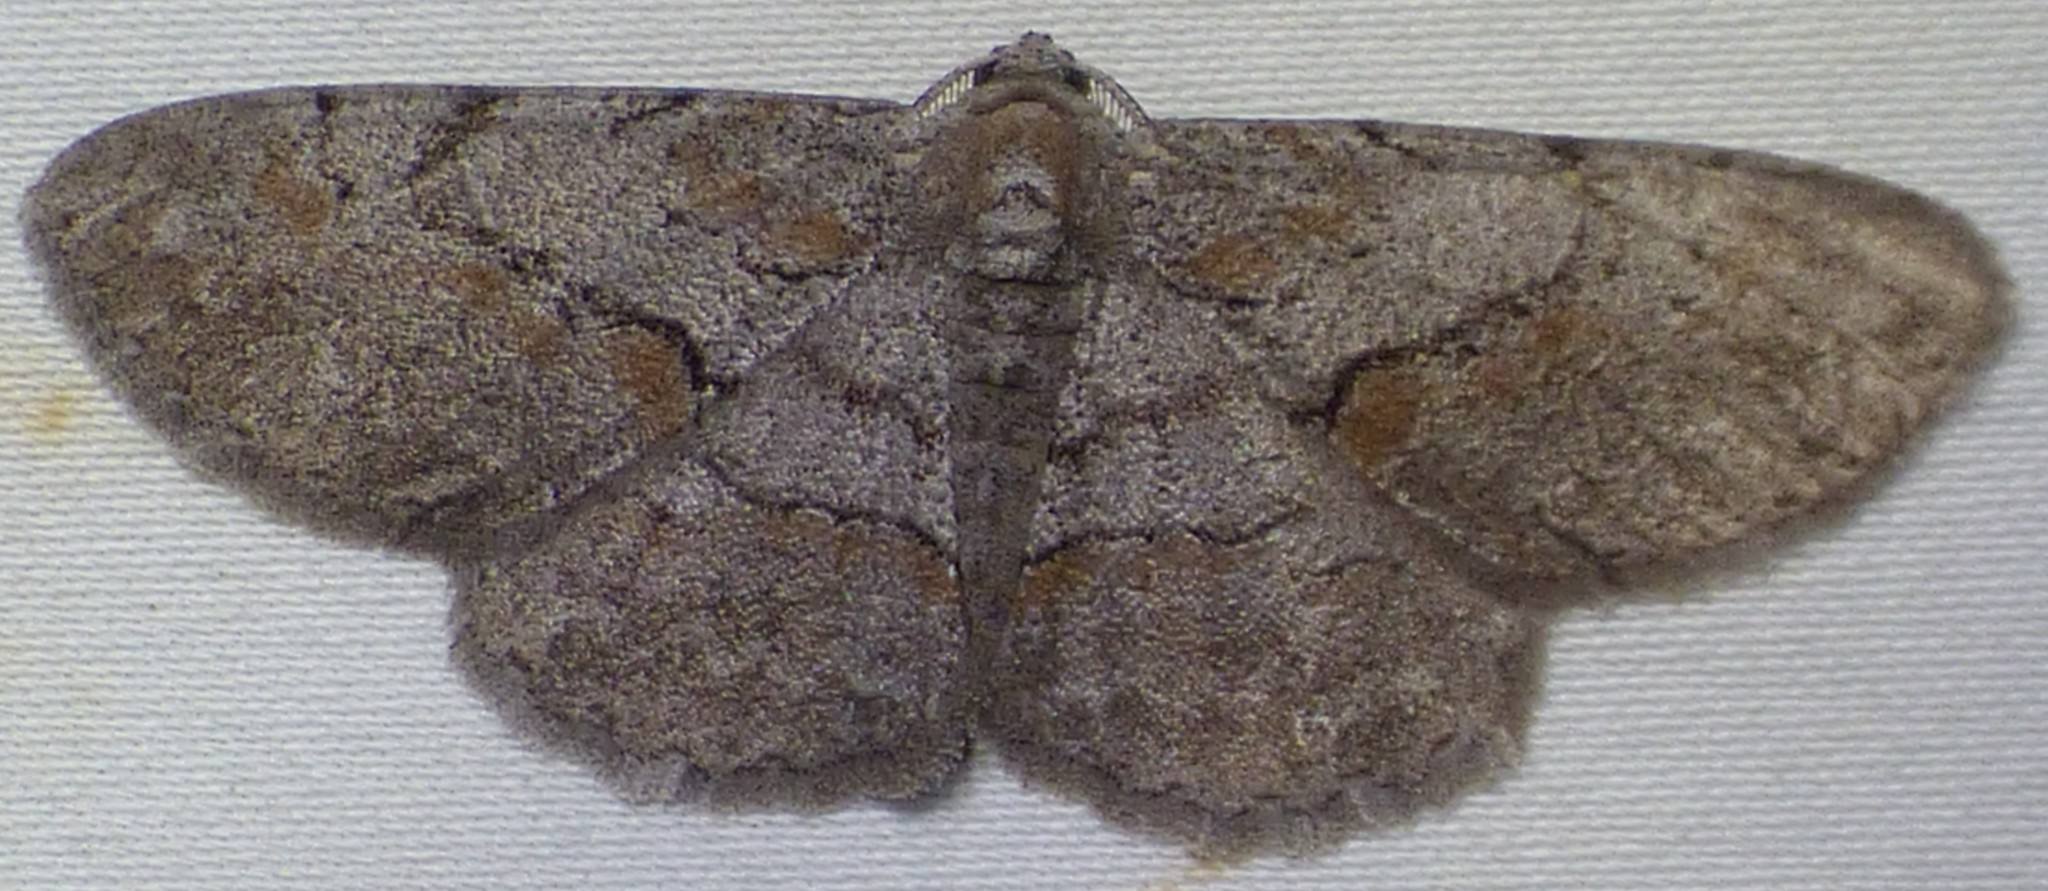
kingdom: Animalia
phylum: Arthropoda
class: Insecta
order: Lepidoptera
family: Geometridae
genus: Iridopsis
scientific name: Iridopsis vellivolata
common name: Large purplish gray
